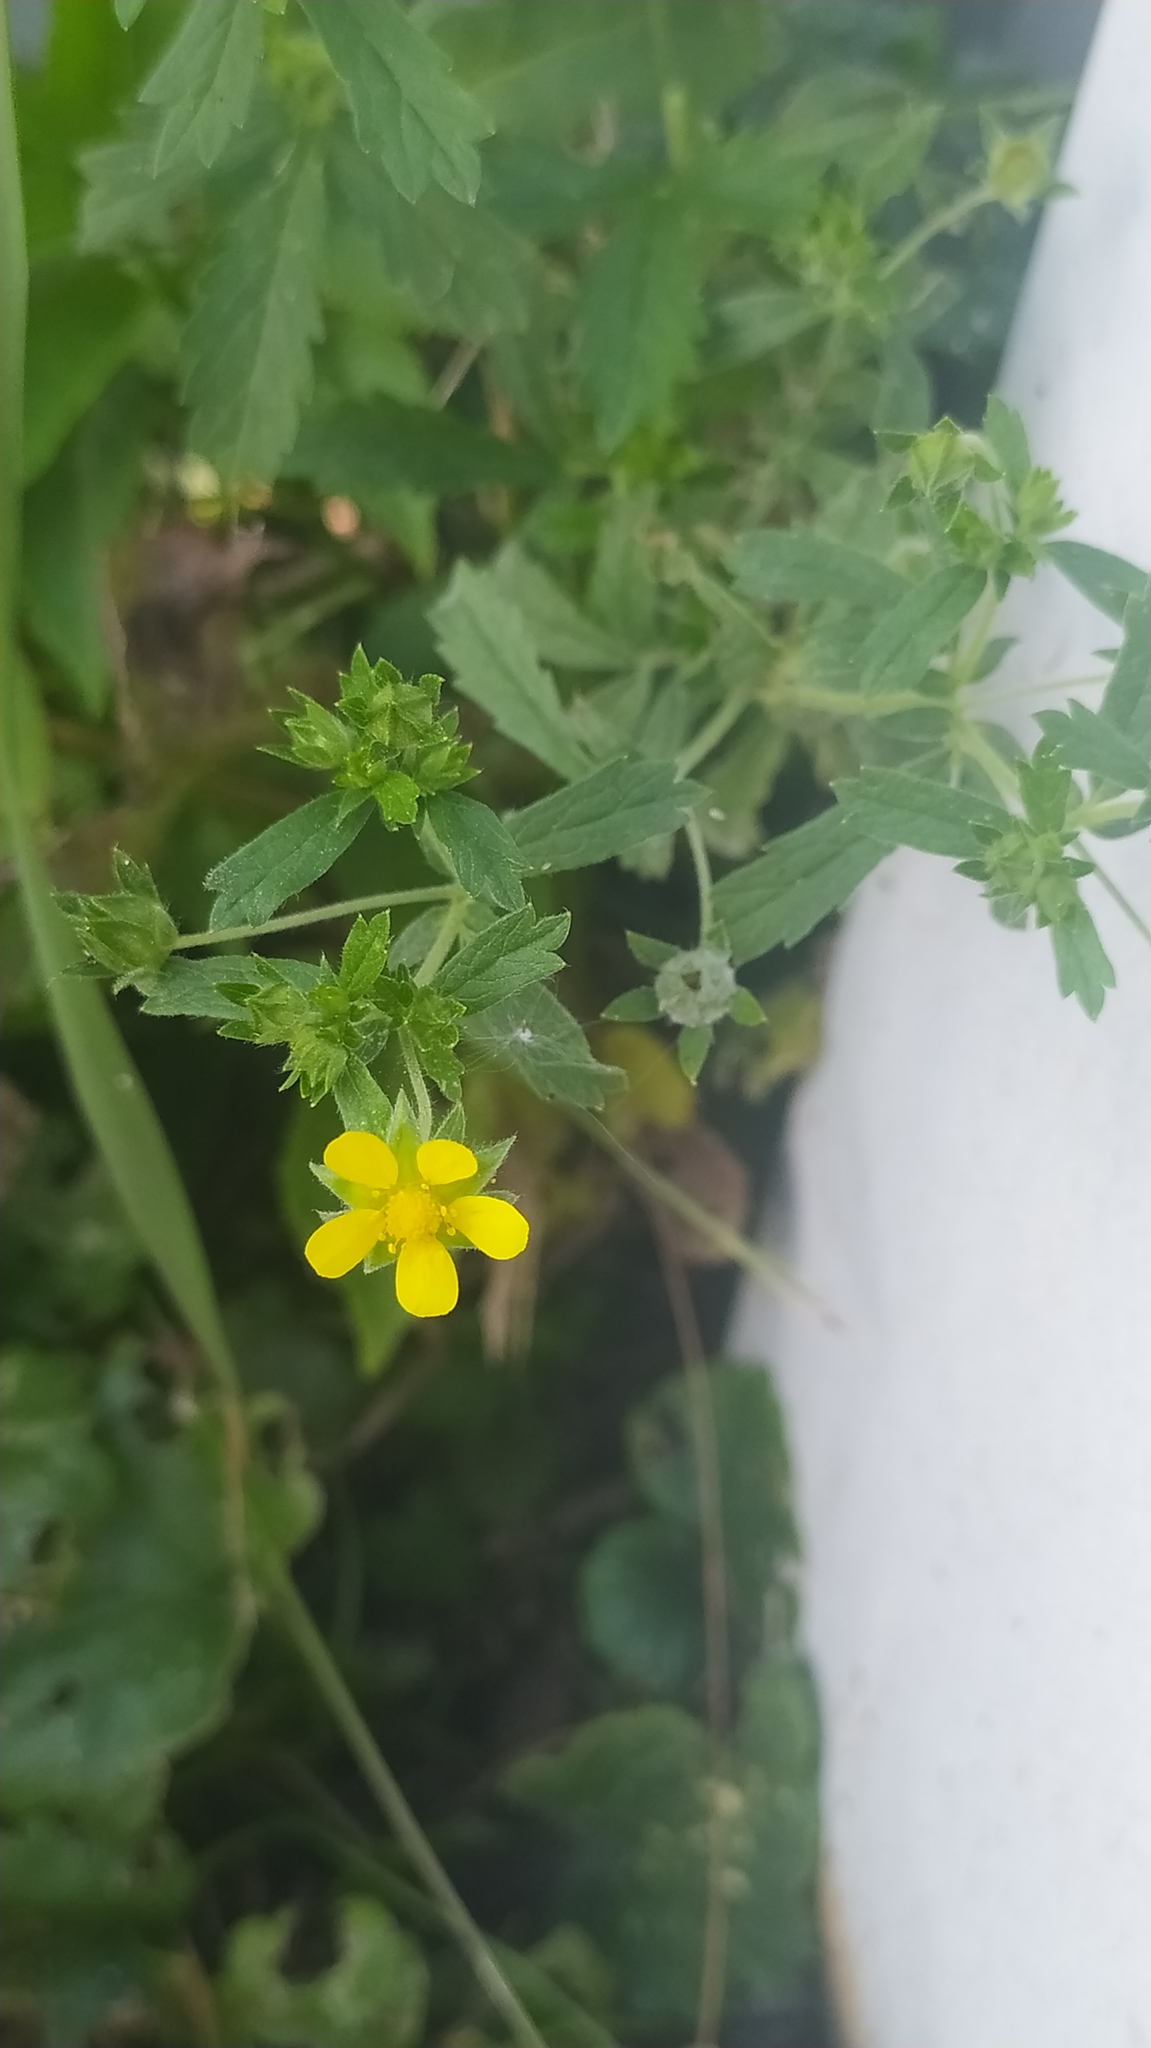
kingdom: Plantae
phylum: Tracheophyta
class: Magnoliopsida
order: Rosales
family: Rosaceae
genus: Potentilla
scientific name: Potentilla intermedia
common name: Downy cinquefoil
